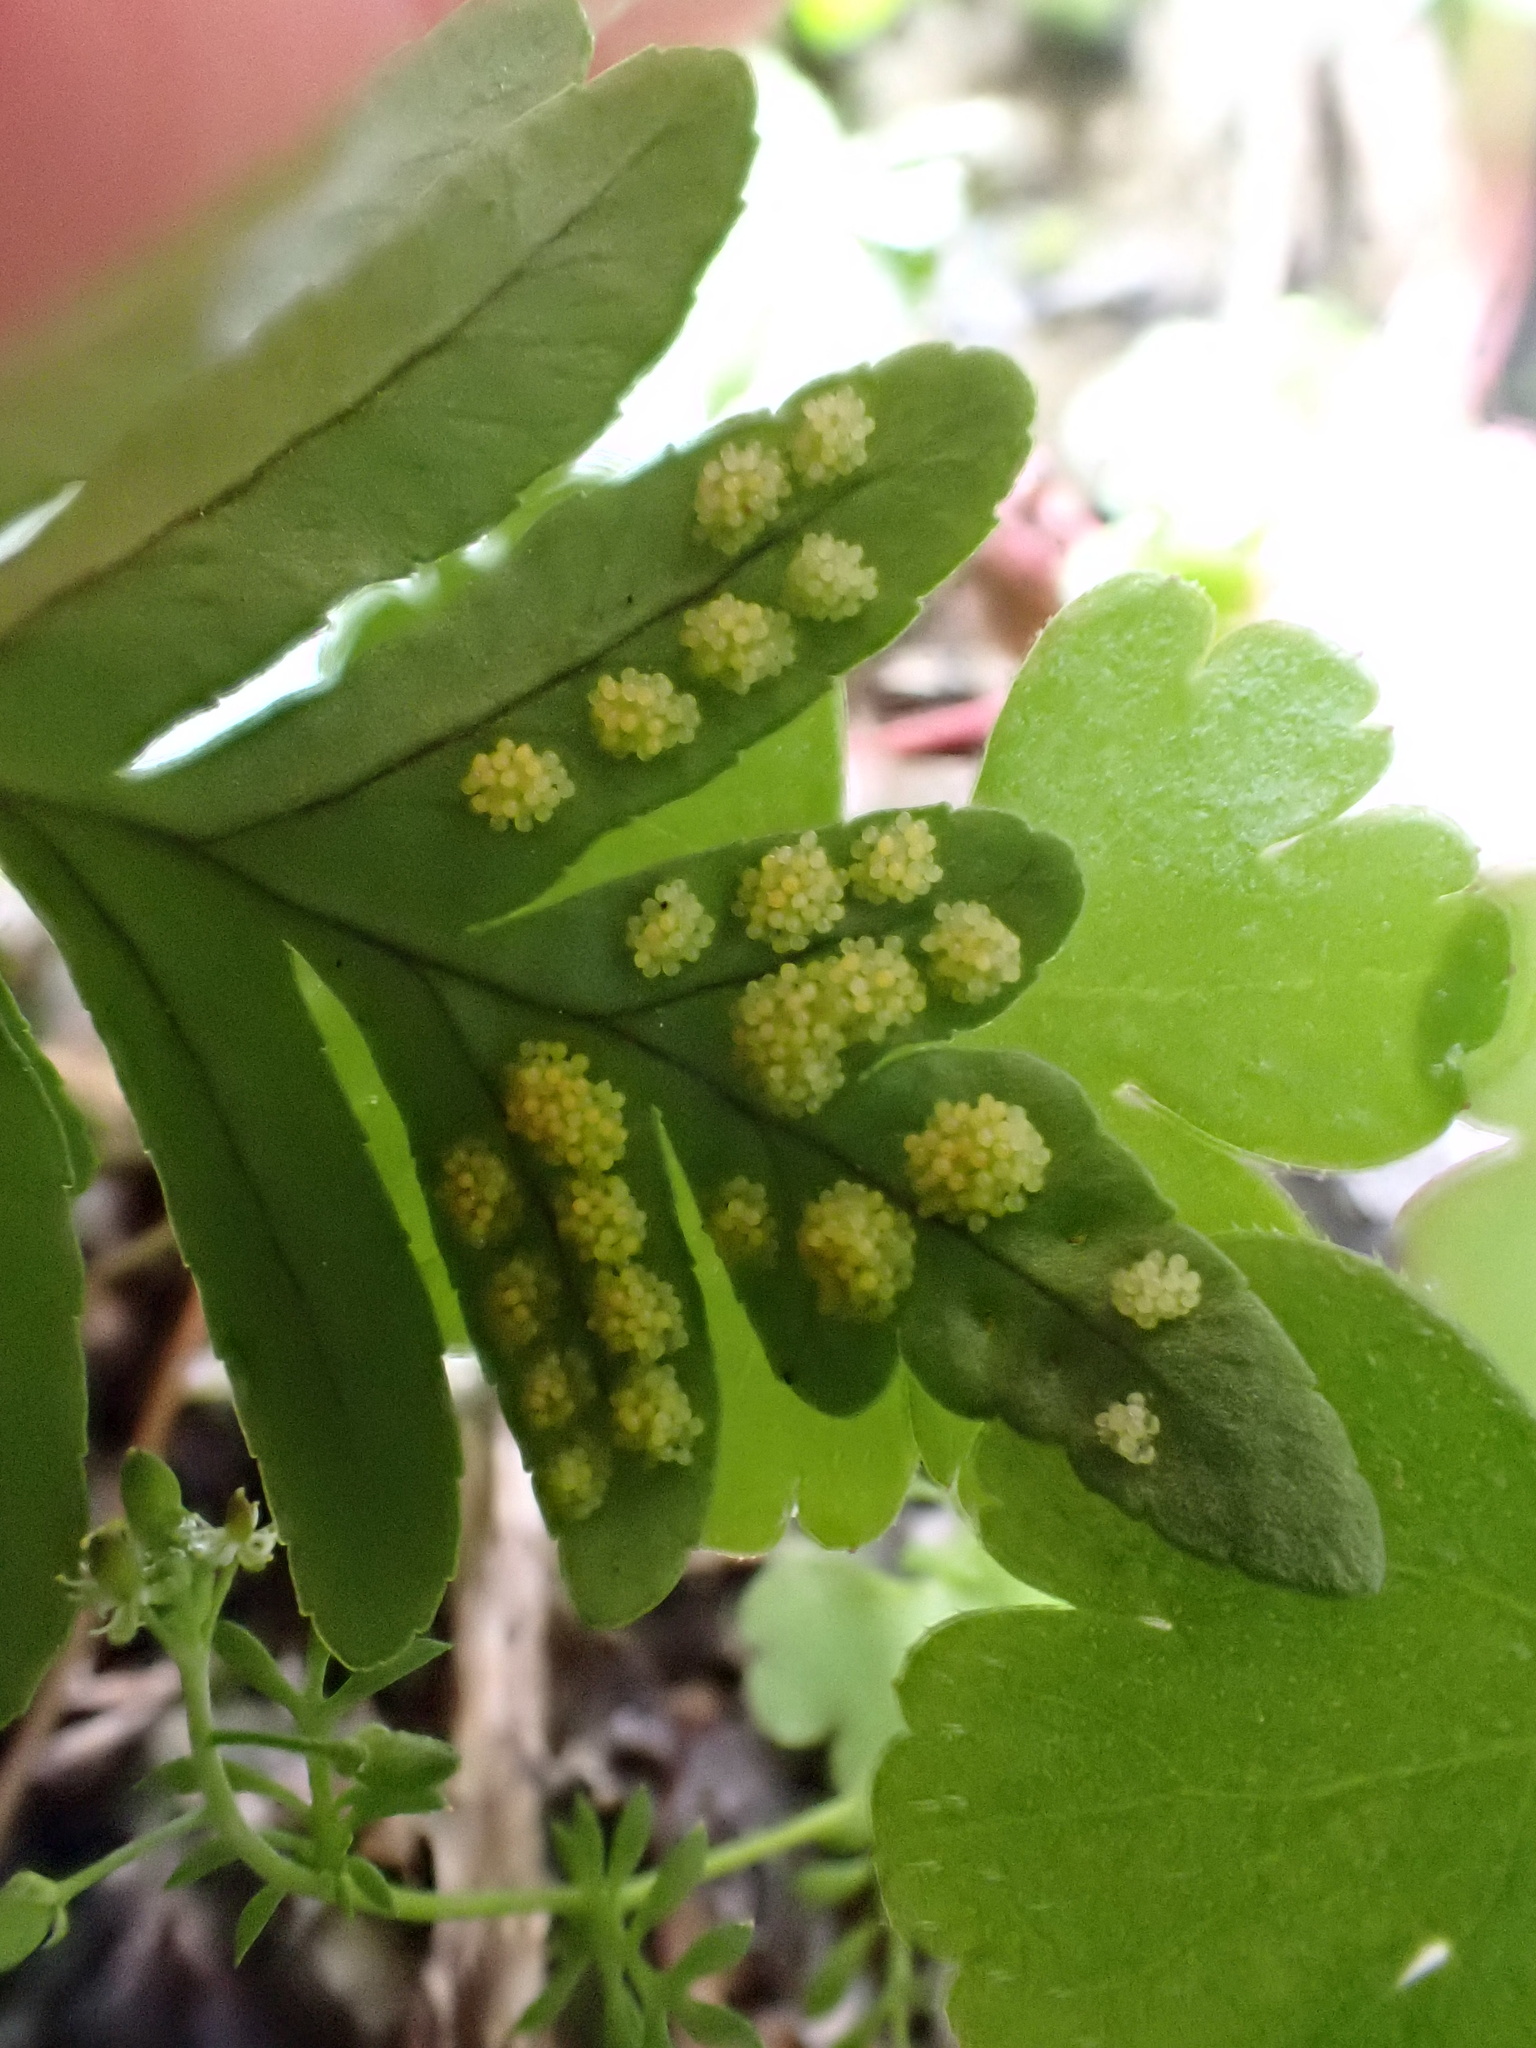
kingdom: Plantae
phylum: Tracheophyta
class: Polypodiopsida
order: Polypodiales
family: Polypodiaceae
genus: Polypodium
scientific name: Polypodium cambricum
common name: Southern polypody
